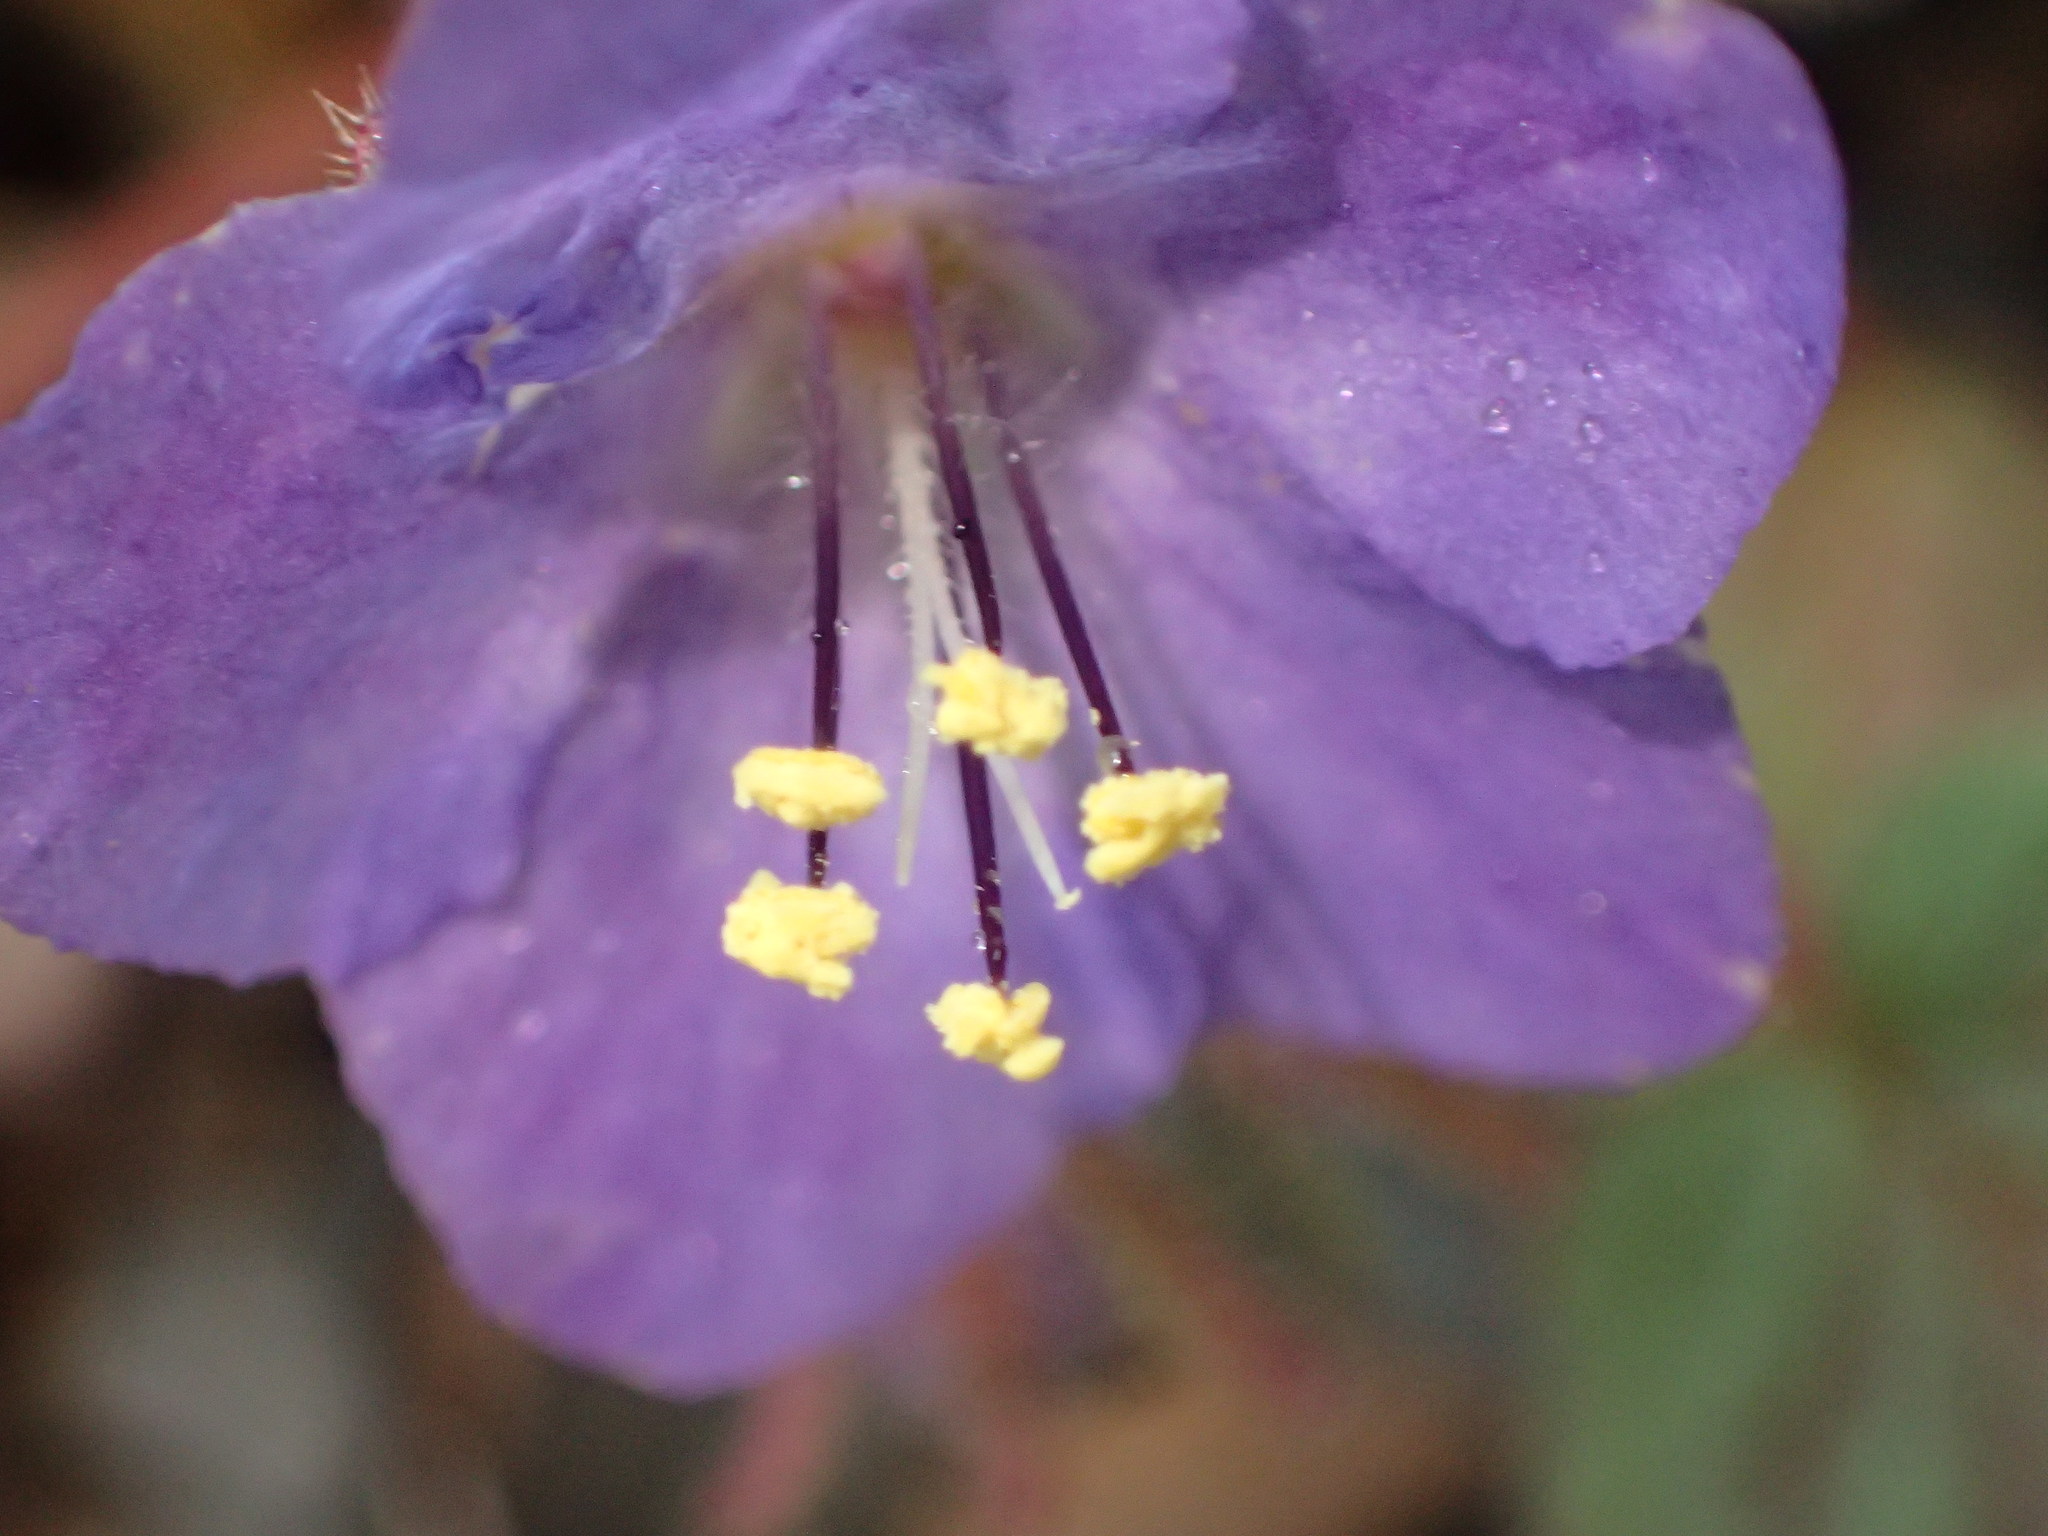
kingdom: Plantae
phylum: Tracheophyta
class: Magnoliopsida
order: Boraginales
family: Hydrophyllaceae
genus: Phacelia
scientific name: Phacelia longipes
